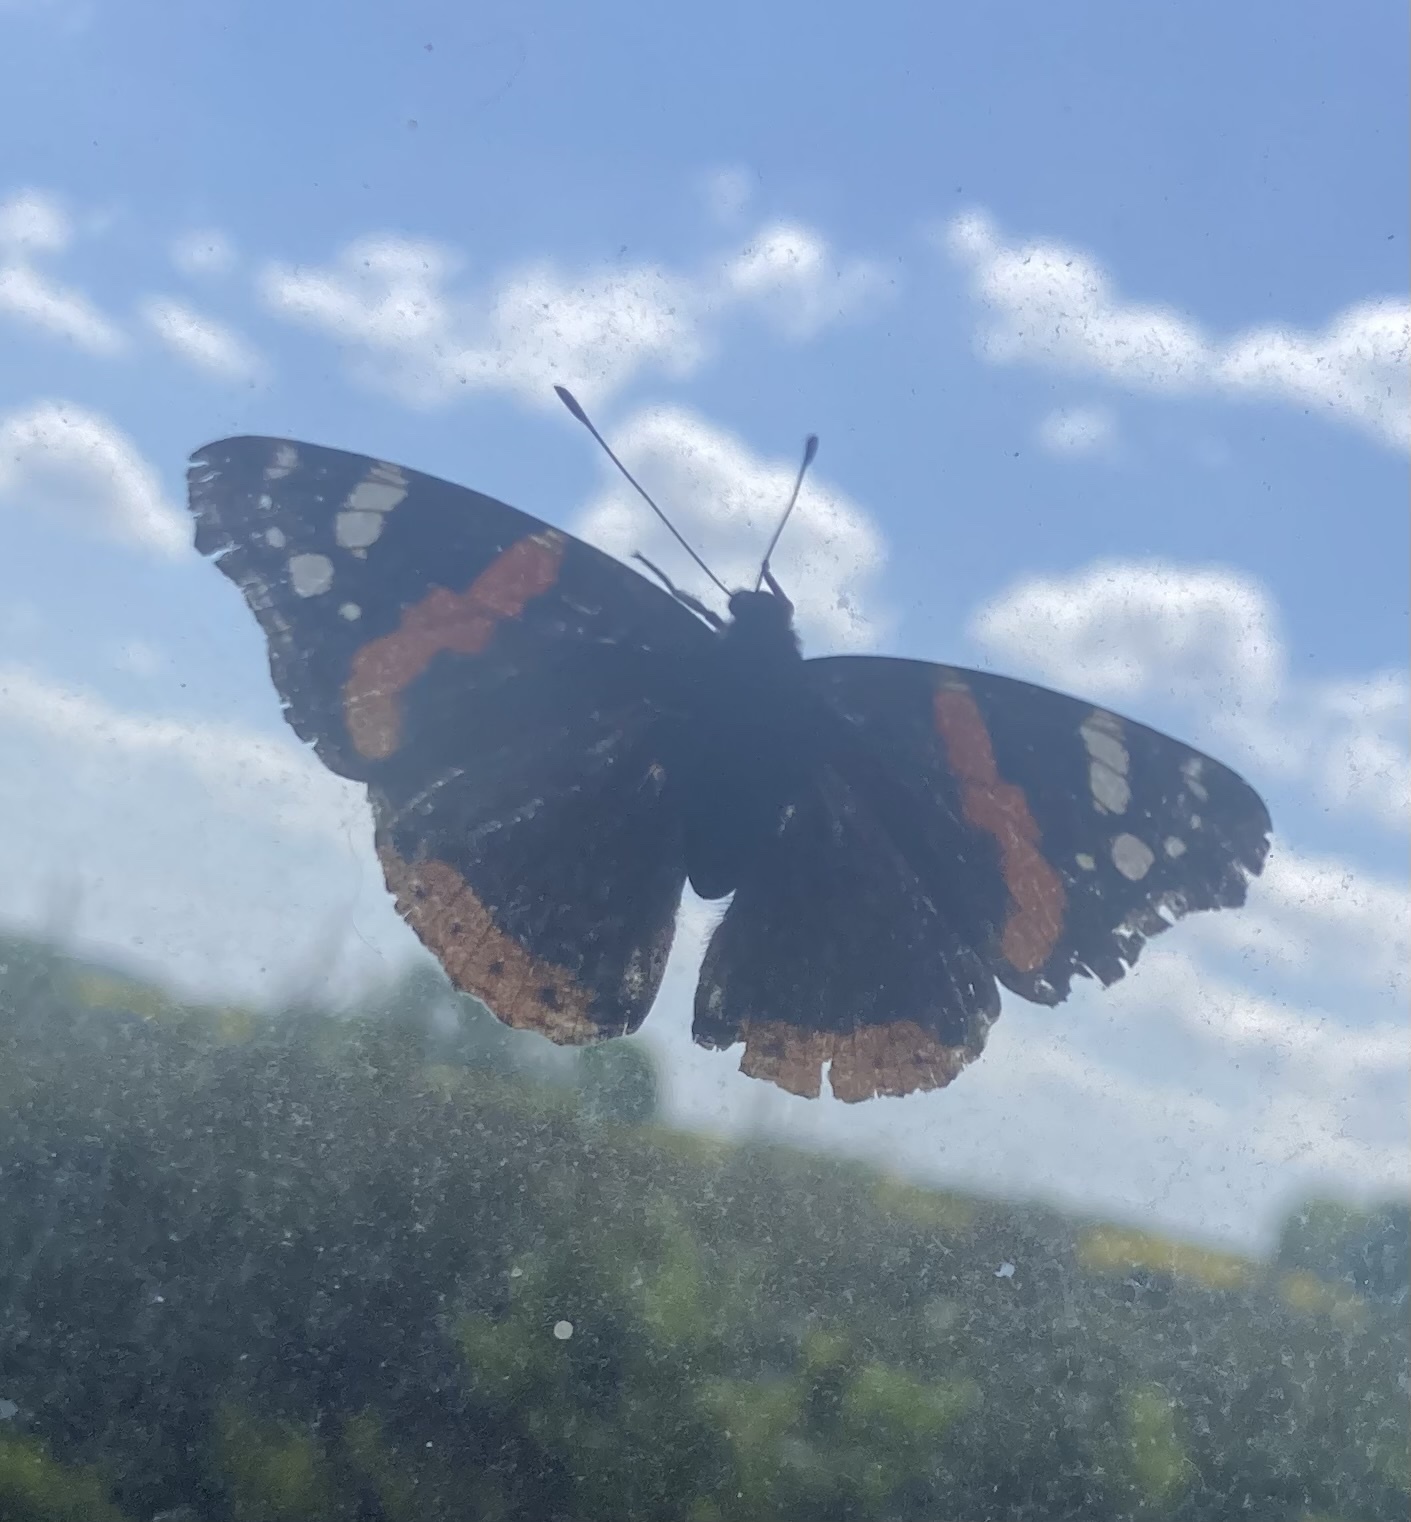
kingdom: Animalia
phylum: Arthropoda
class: Insecta
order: Lepidoptera
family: Nymphalidae
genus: Vanessa
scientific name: Vanessa atalanta
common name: Red admiral
